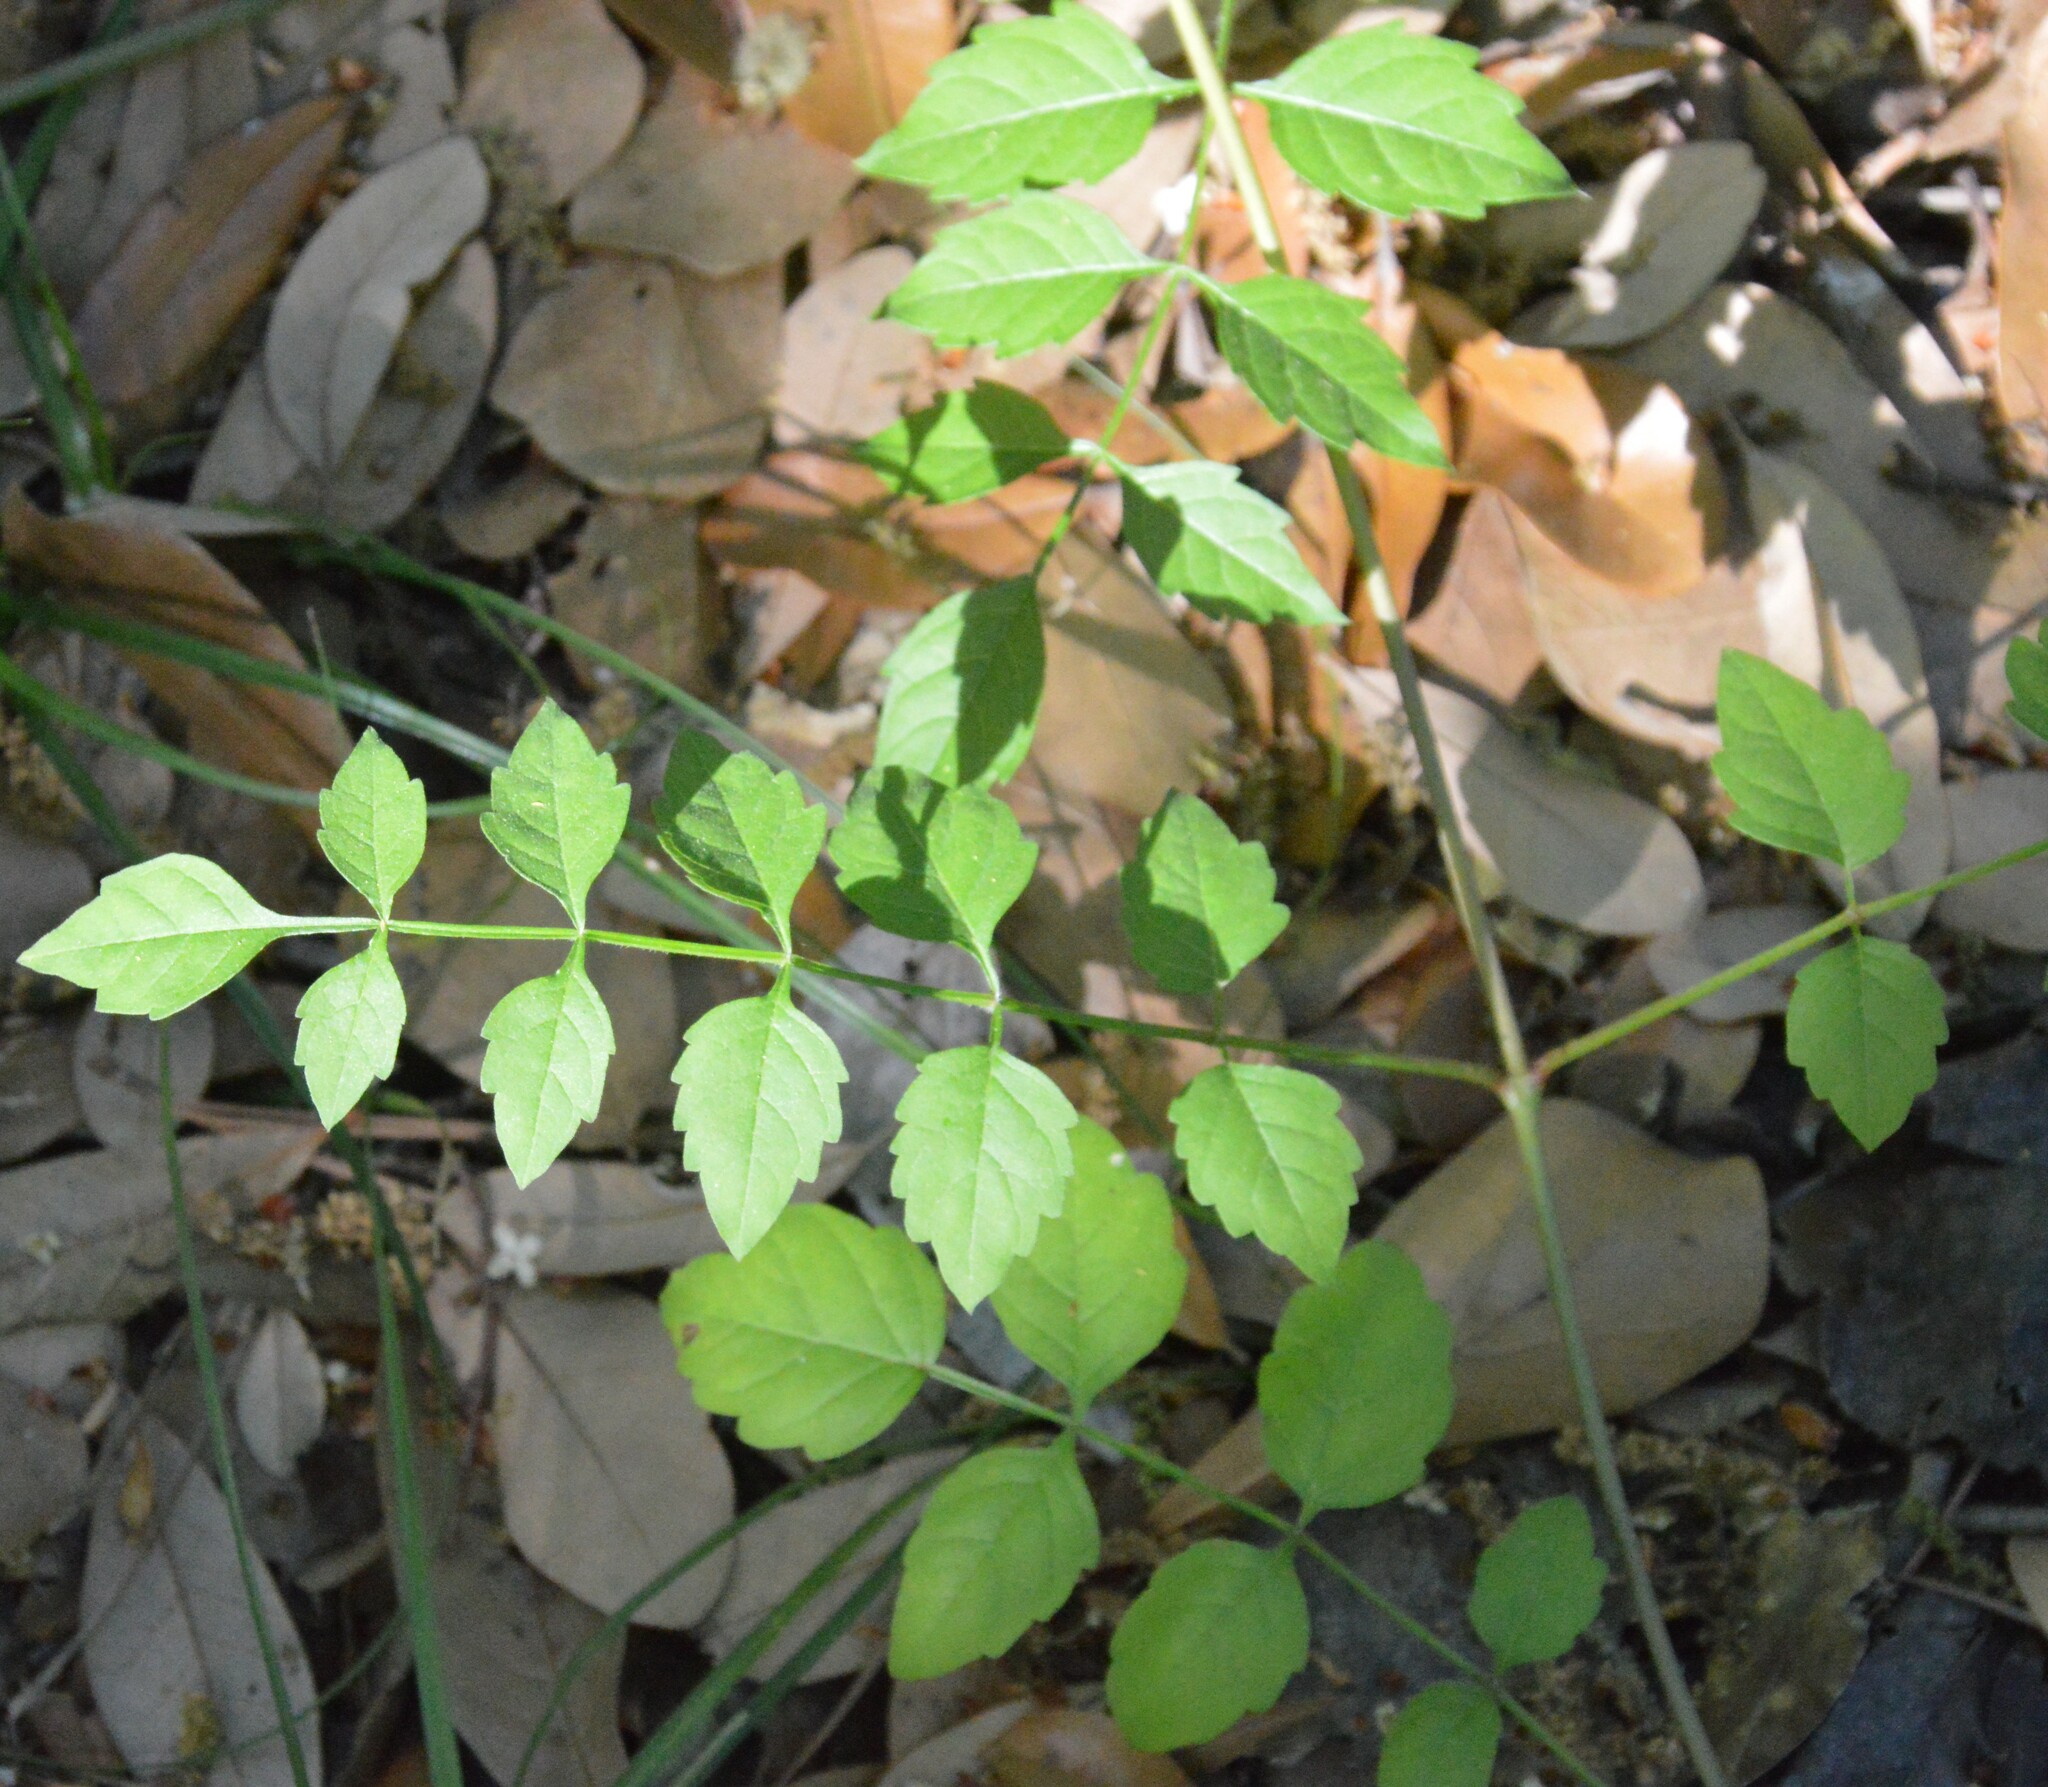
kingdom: Plantae
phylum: Tracheophyta
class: Magnoliopsida
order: Lamiales
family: Bignoniaceae
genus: Campsis
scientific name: Campsis radicans
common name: Trumpet-creeper
